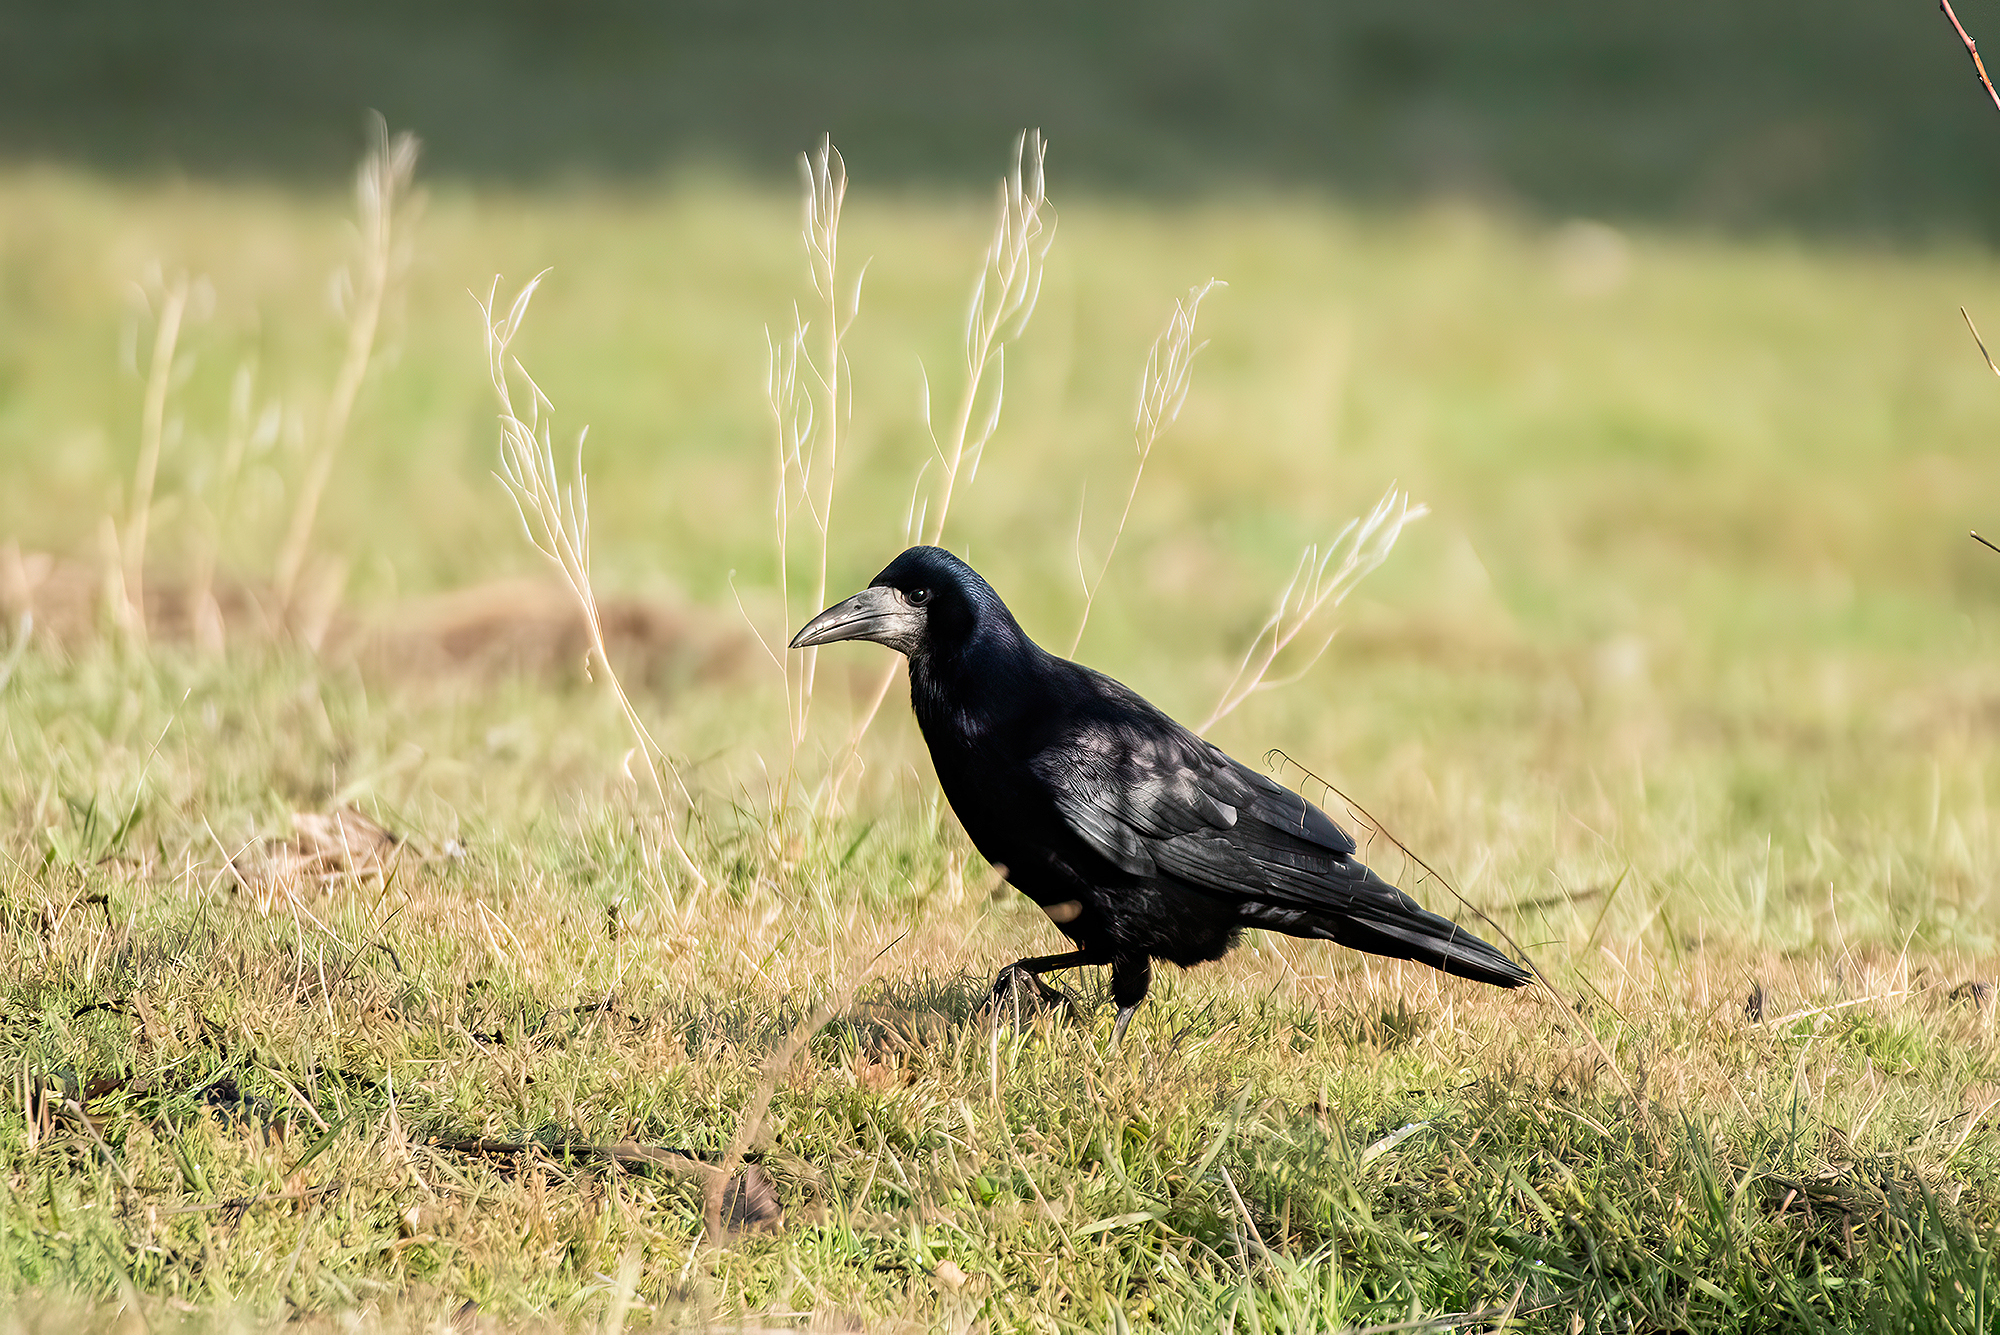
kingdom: Animalia
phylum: Chordata
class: Aves
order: Passeriformes
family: Corvidae
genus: Corvus
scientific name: Corvus frugilegus
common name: Rook
